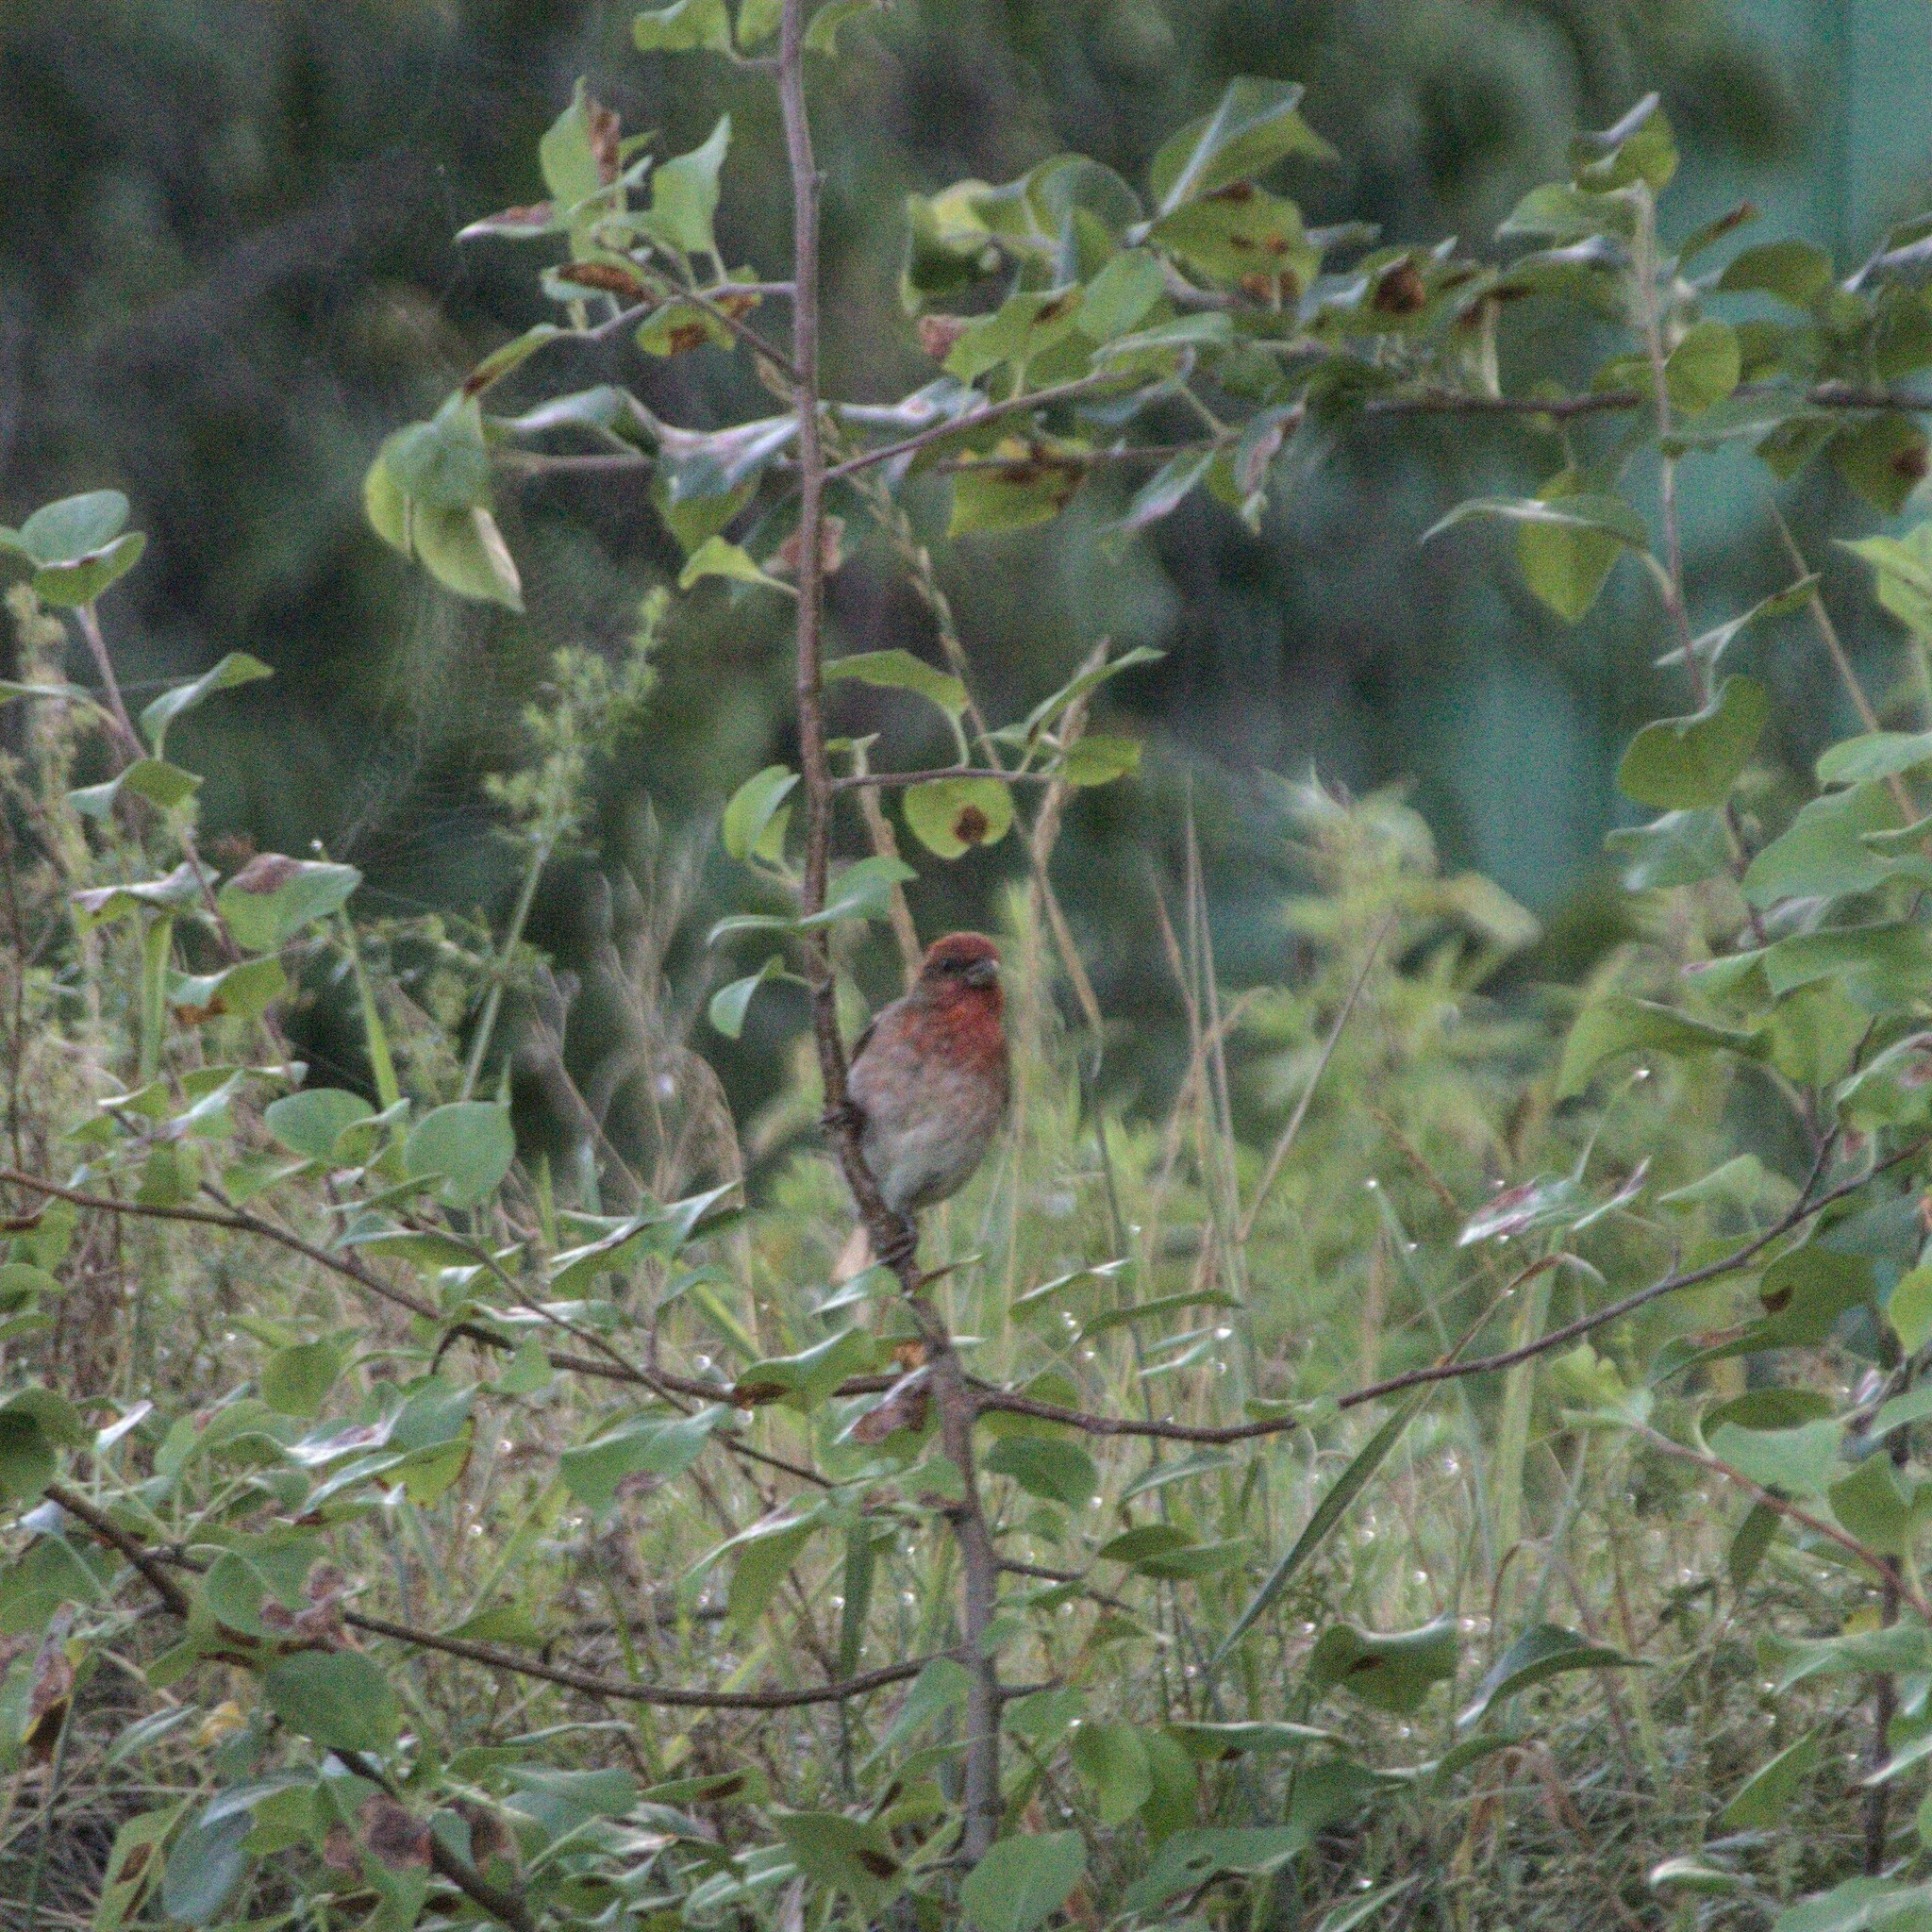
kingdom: Animalia
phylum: Chordata
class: Aves
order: Passeriformes
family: Fringillidae
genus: Carpodacus
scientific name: Carpodacus erythrinus
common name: Common rosefinch
